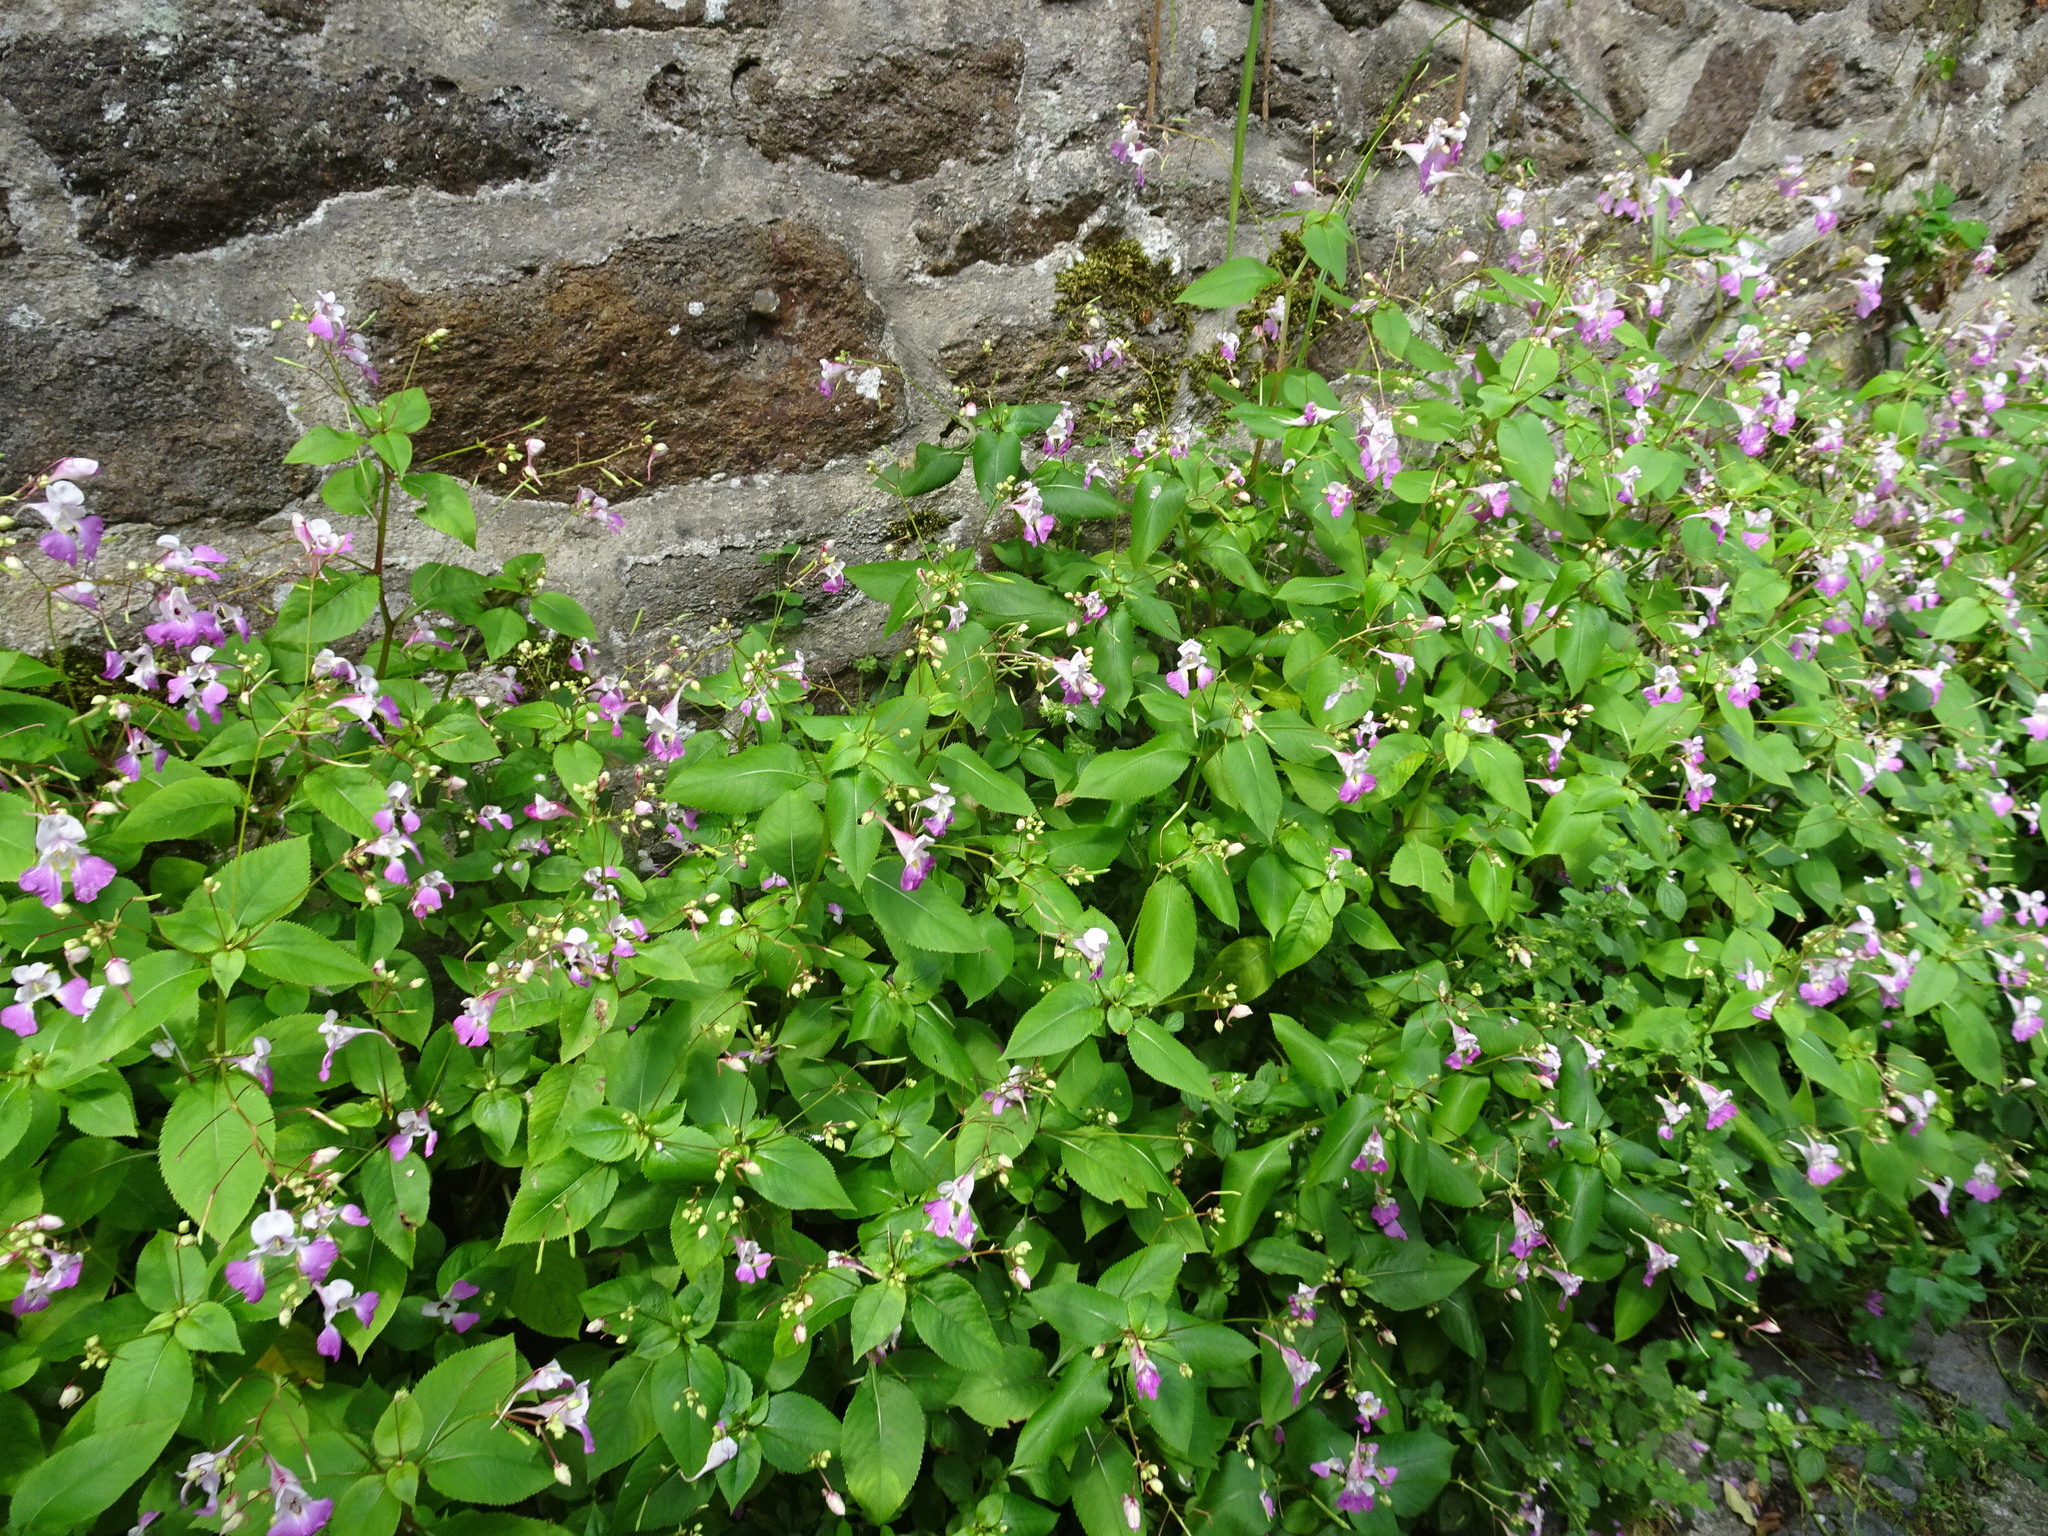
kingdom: Plantae
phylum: Tracheophyta
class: Magnoliopsida
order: Ericales
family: Balsaminaceae
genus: Impatiens
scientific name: Impatiens balfourii
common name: Balfour's touch-me-not
